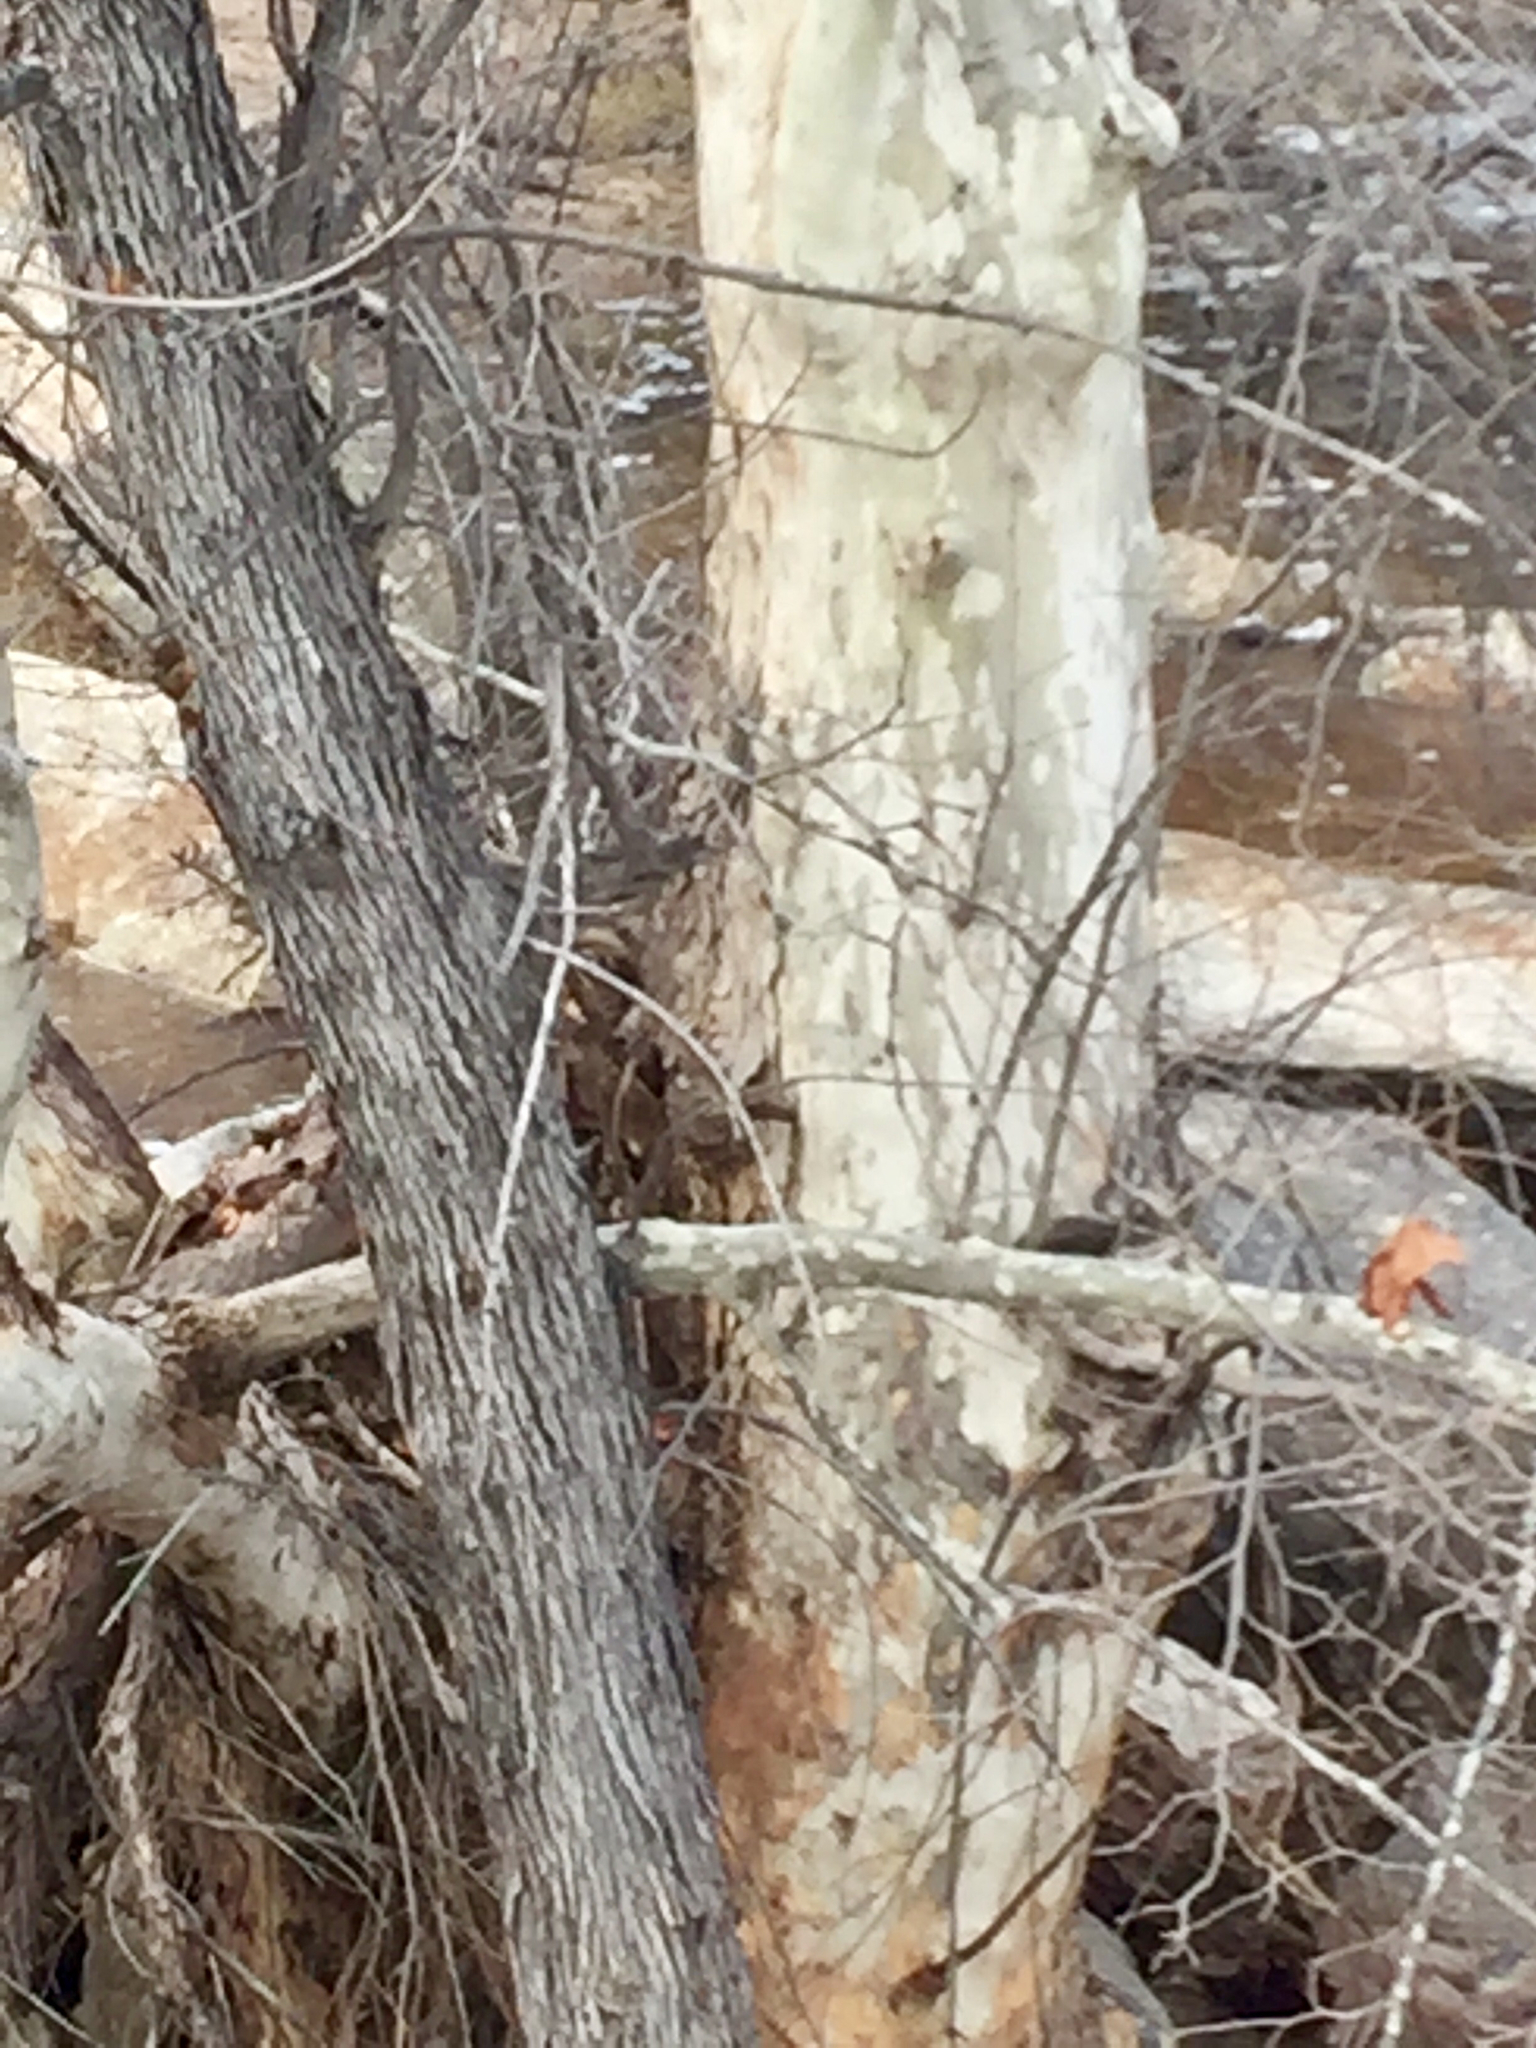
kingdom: Plantae
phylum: Tracheophyta
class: Magnoliopsida
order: Proteales
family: Platanaceae
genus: Platanus
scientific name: Platanus wrightii
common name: Arizona sycamore
